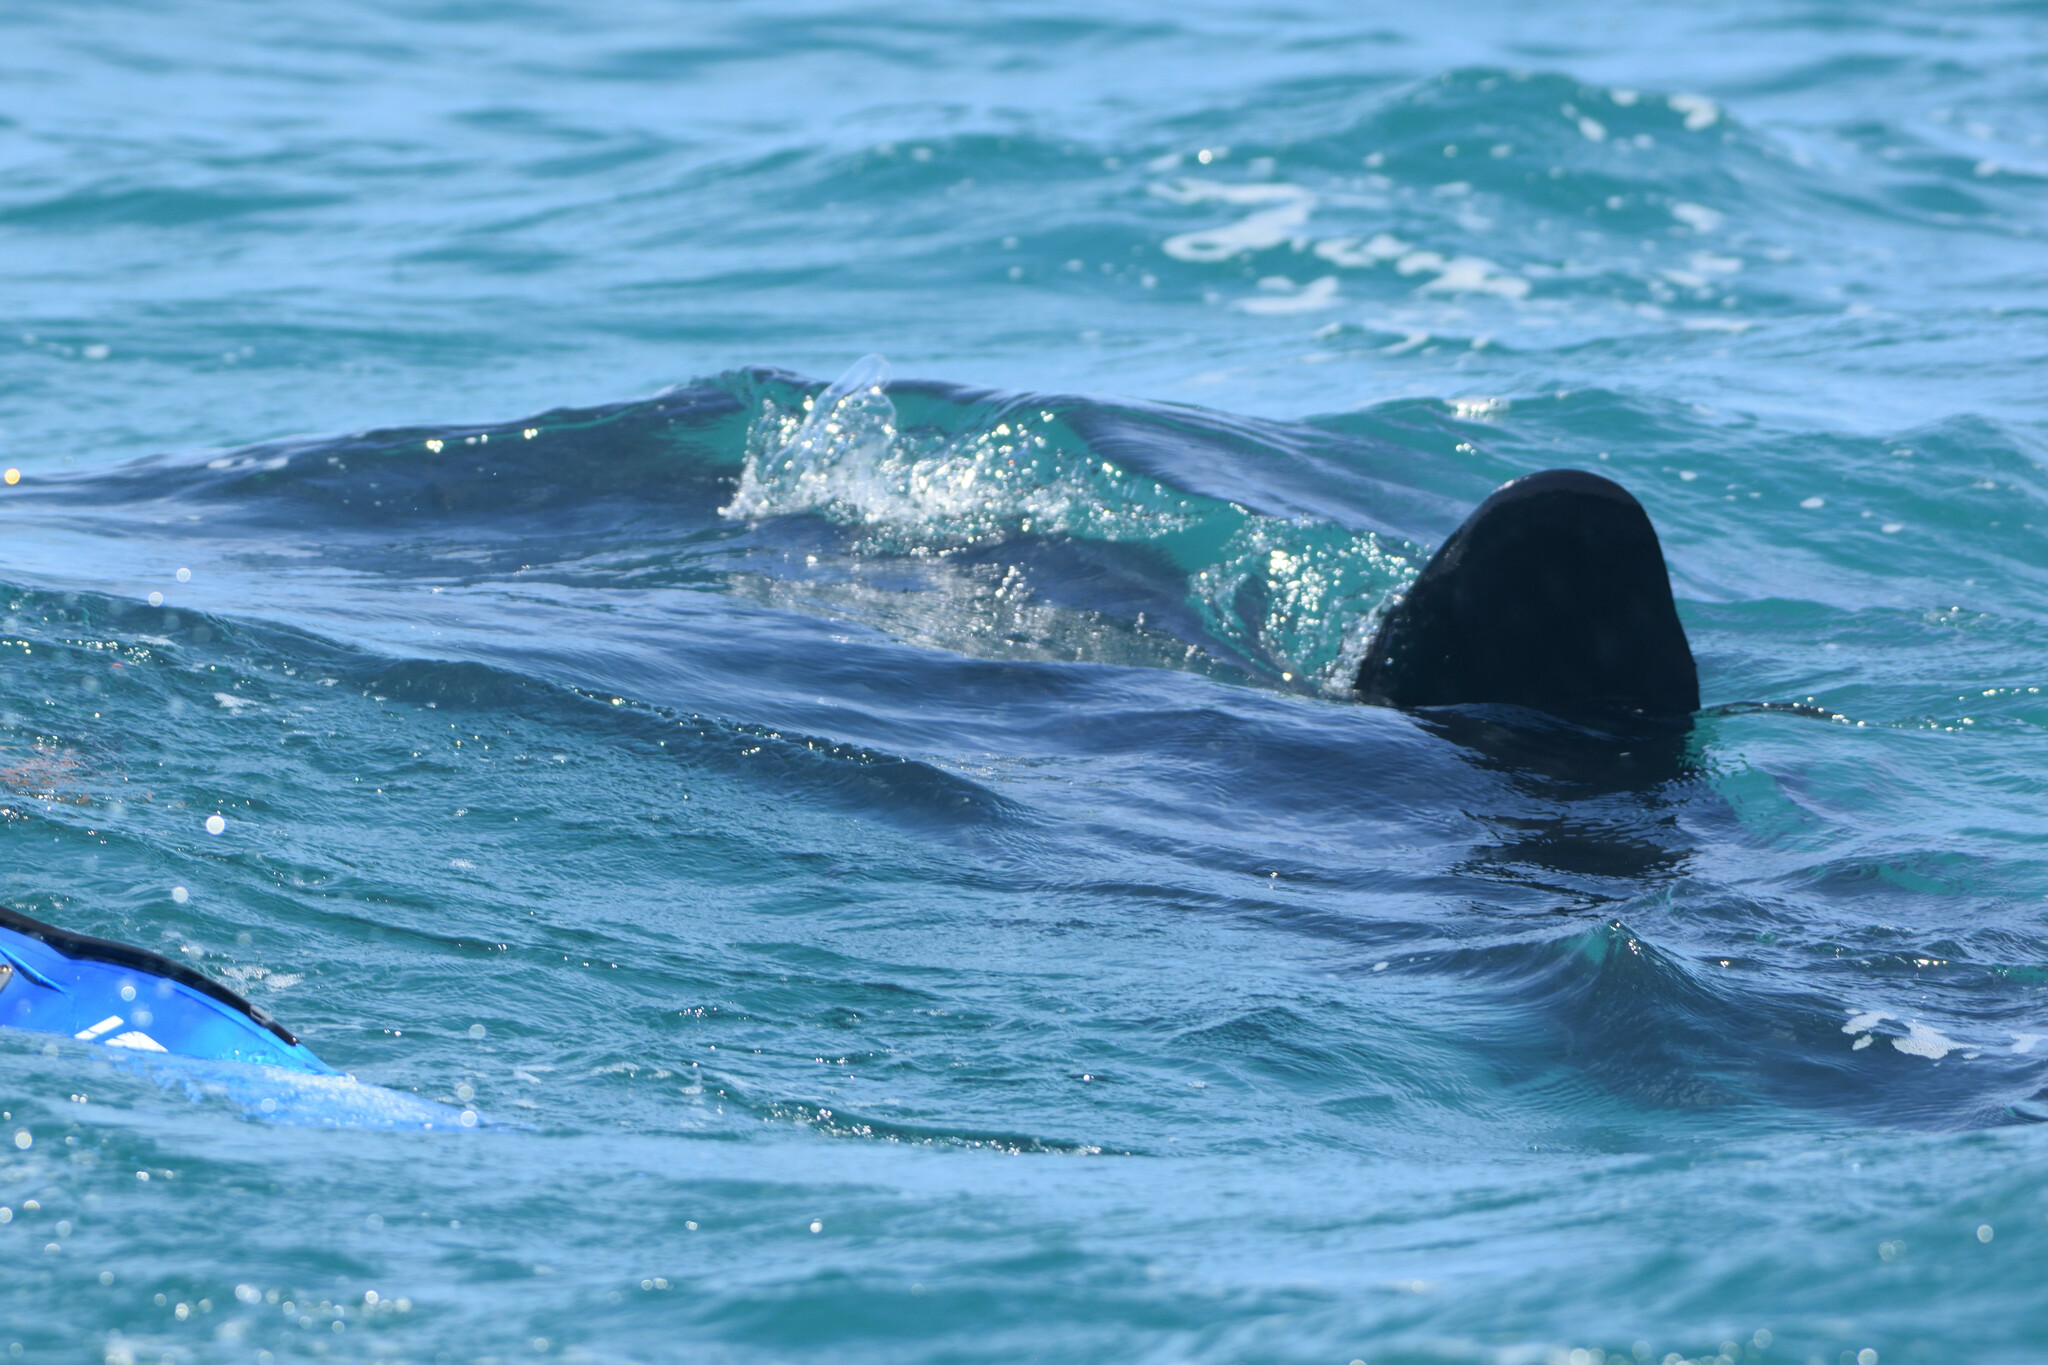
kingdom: Animalia
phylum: Chordata
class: Elasmobranchii
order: Orectolobiformes
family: Rhincodontidae
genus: Rhincodon
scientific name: Rhincodon typus
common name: Whale shark
